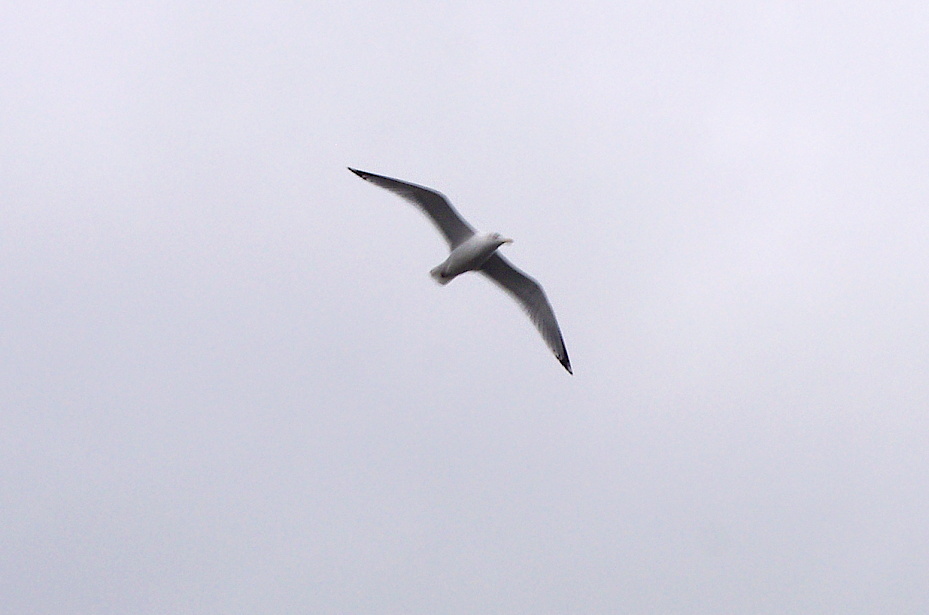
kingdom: Animalia
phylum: Chordata
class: Aves
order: Charadriiformes
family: Laridae
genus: Larus
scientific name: Larus argentatus
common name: Herring gull
